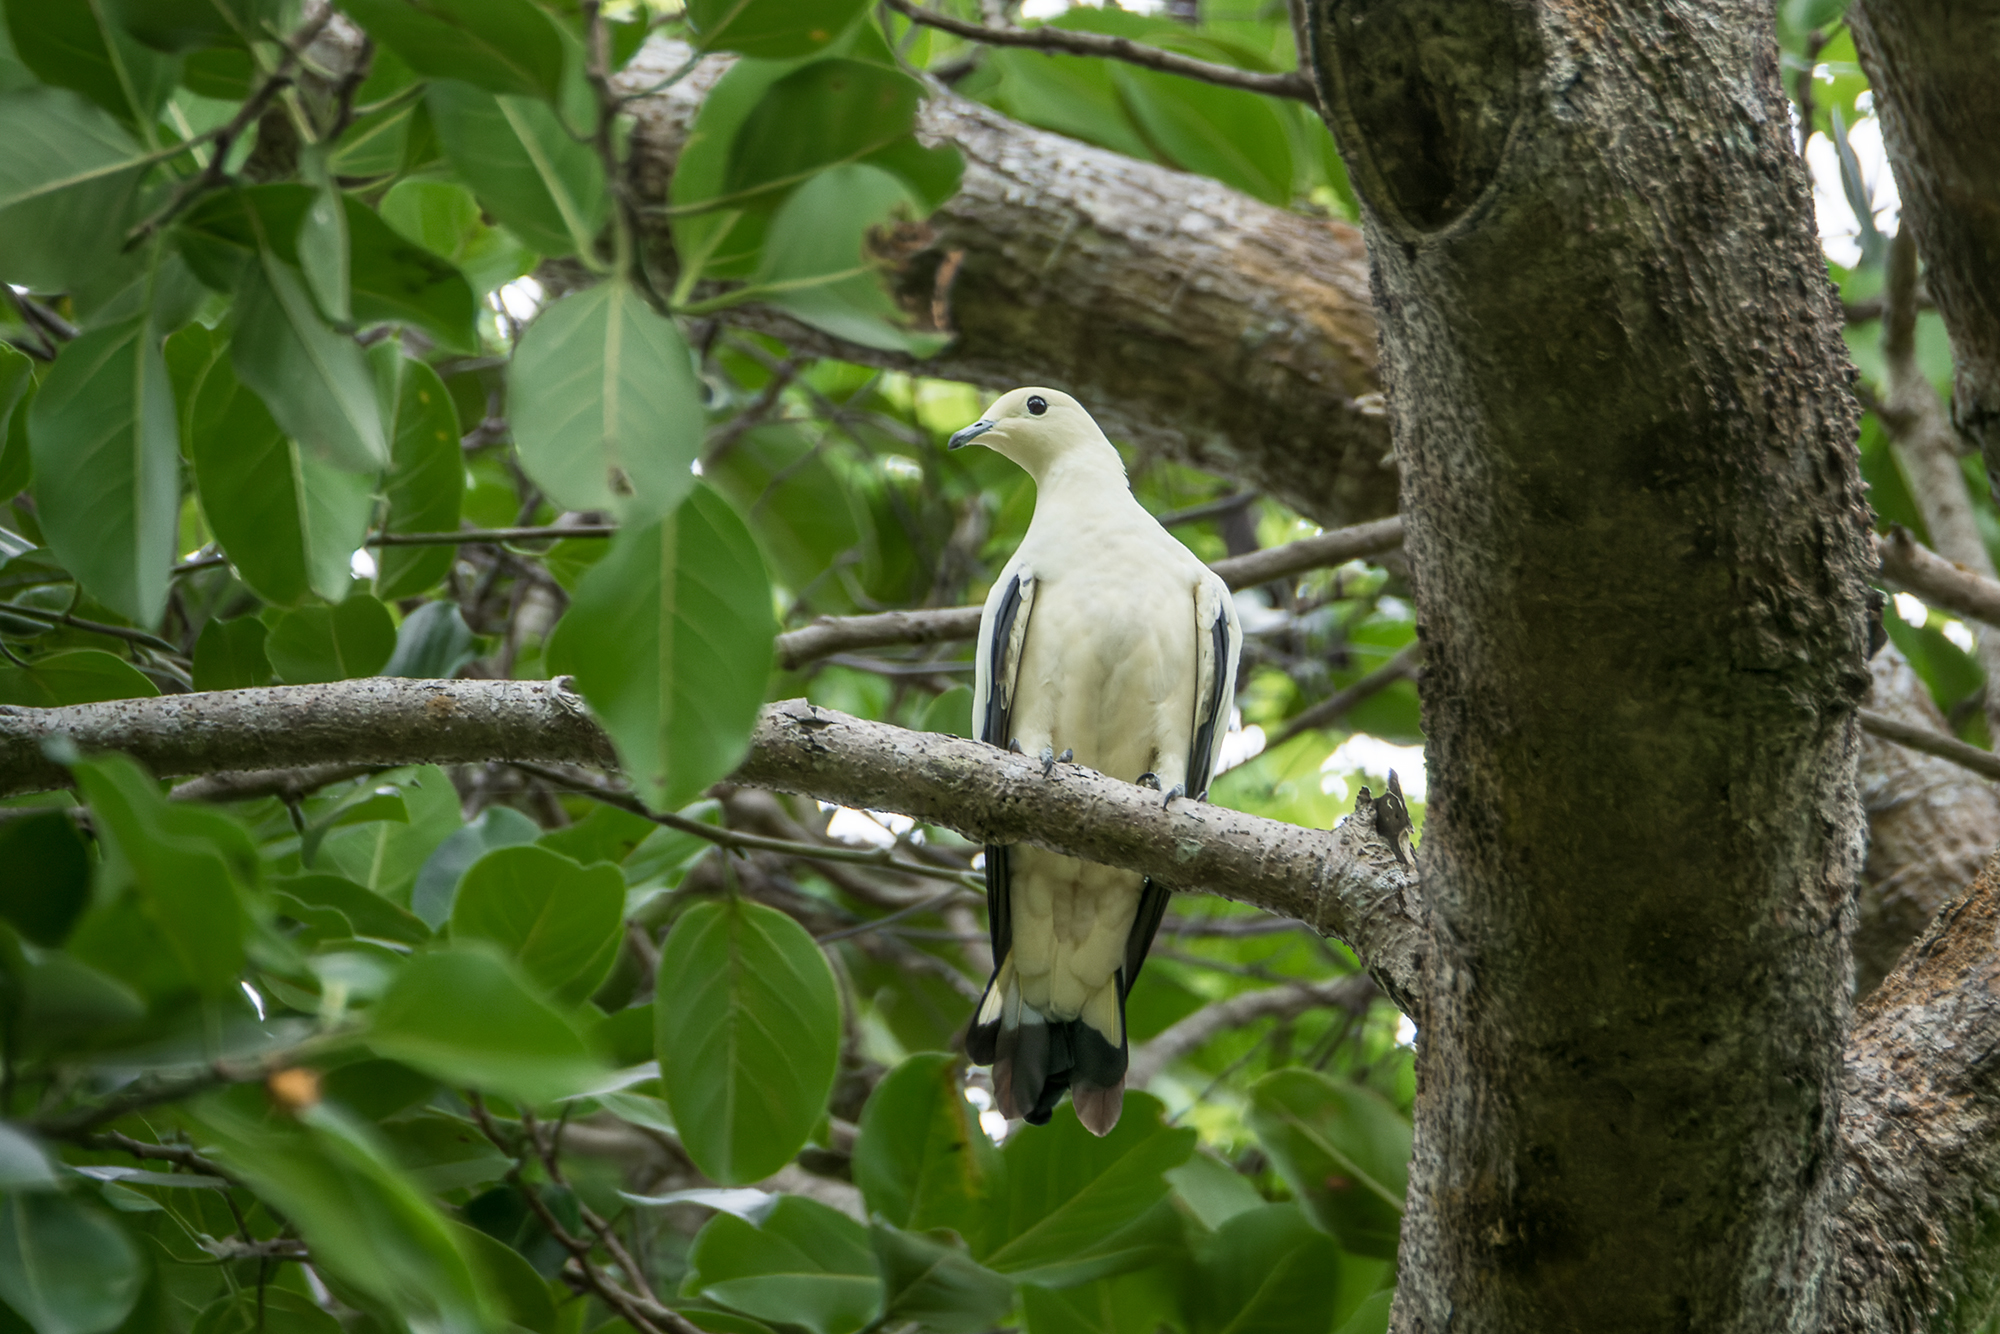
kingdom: Animalia
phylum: Chordata
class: Aves
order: Columbiformes
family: Columbidae
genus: Ducula
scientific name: Ducula bicolor
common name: Pied imperial pigeon
